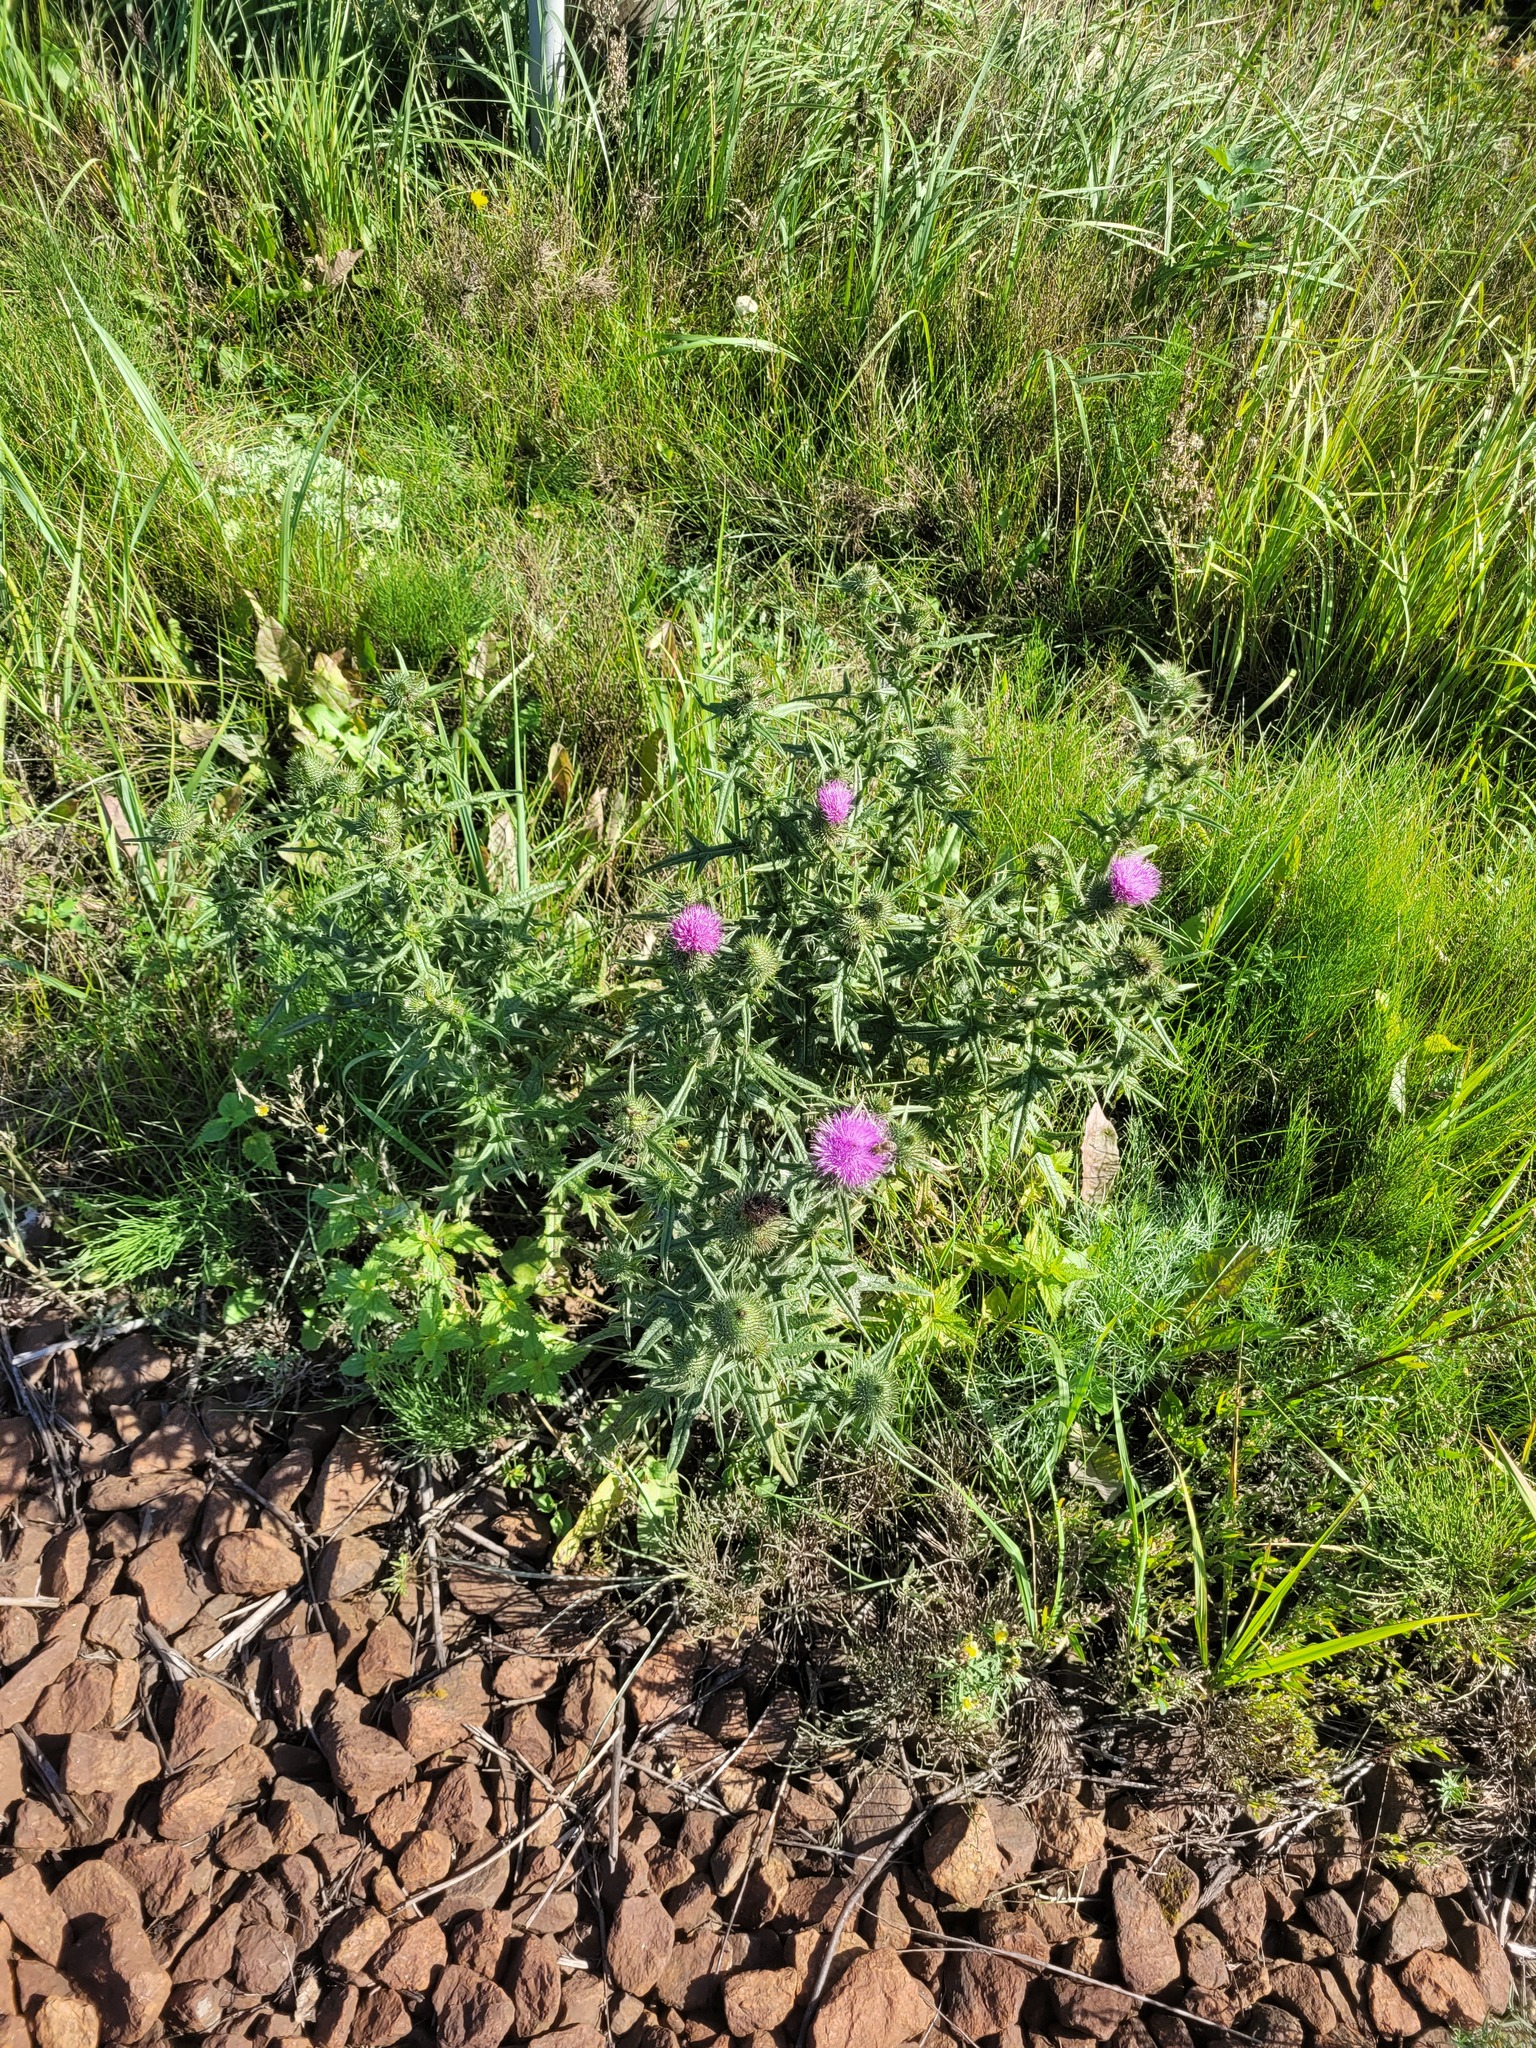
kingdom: Plantae
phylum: Tracheophyta
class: Magnoliopsida
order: Asterales
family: Asteraceae
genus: Cirsium
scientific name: Cirsium vulgare
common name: Bull thistle
